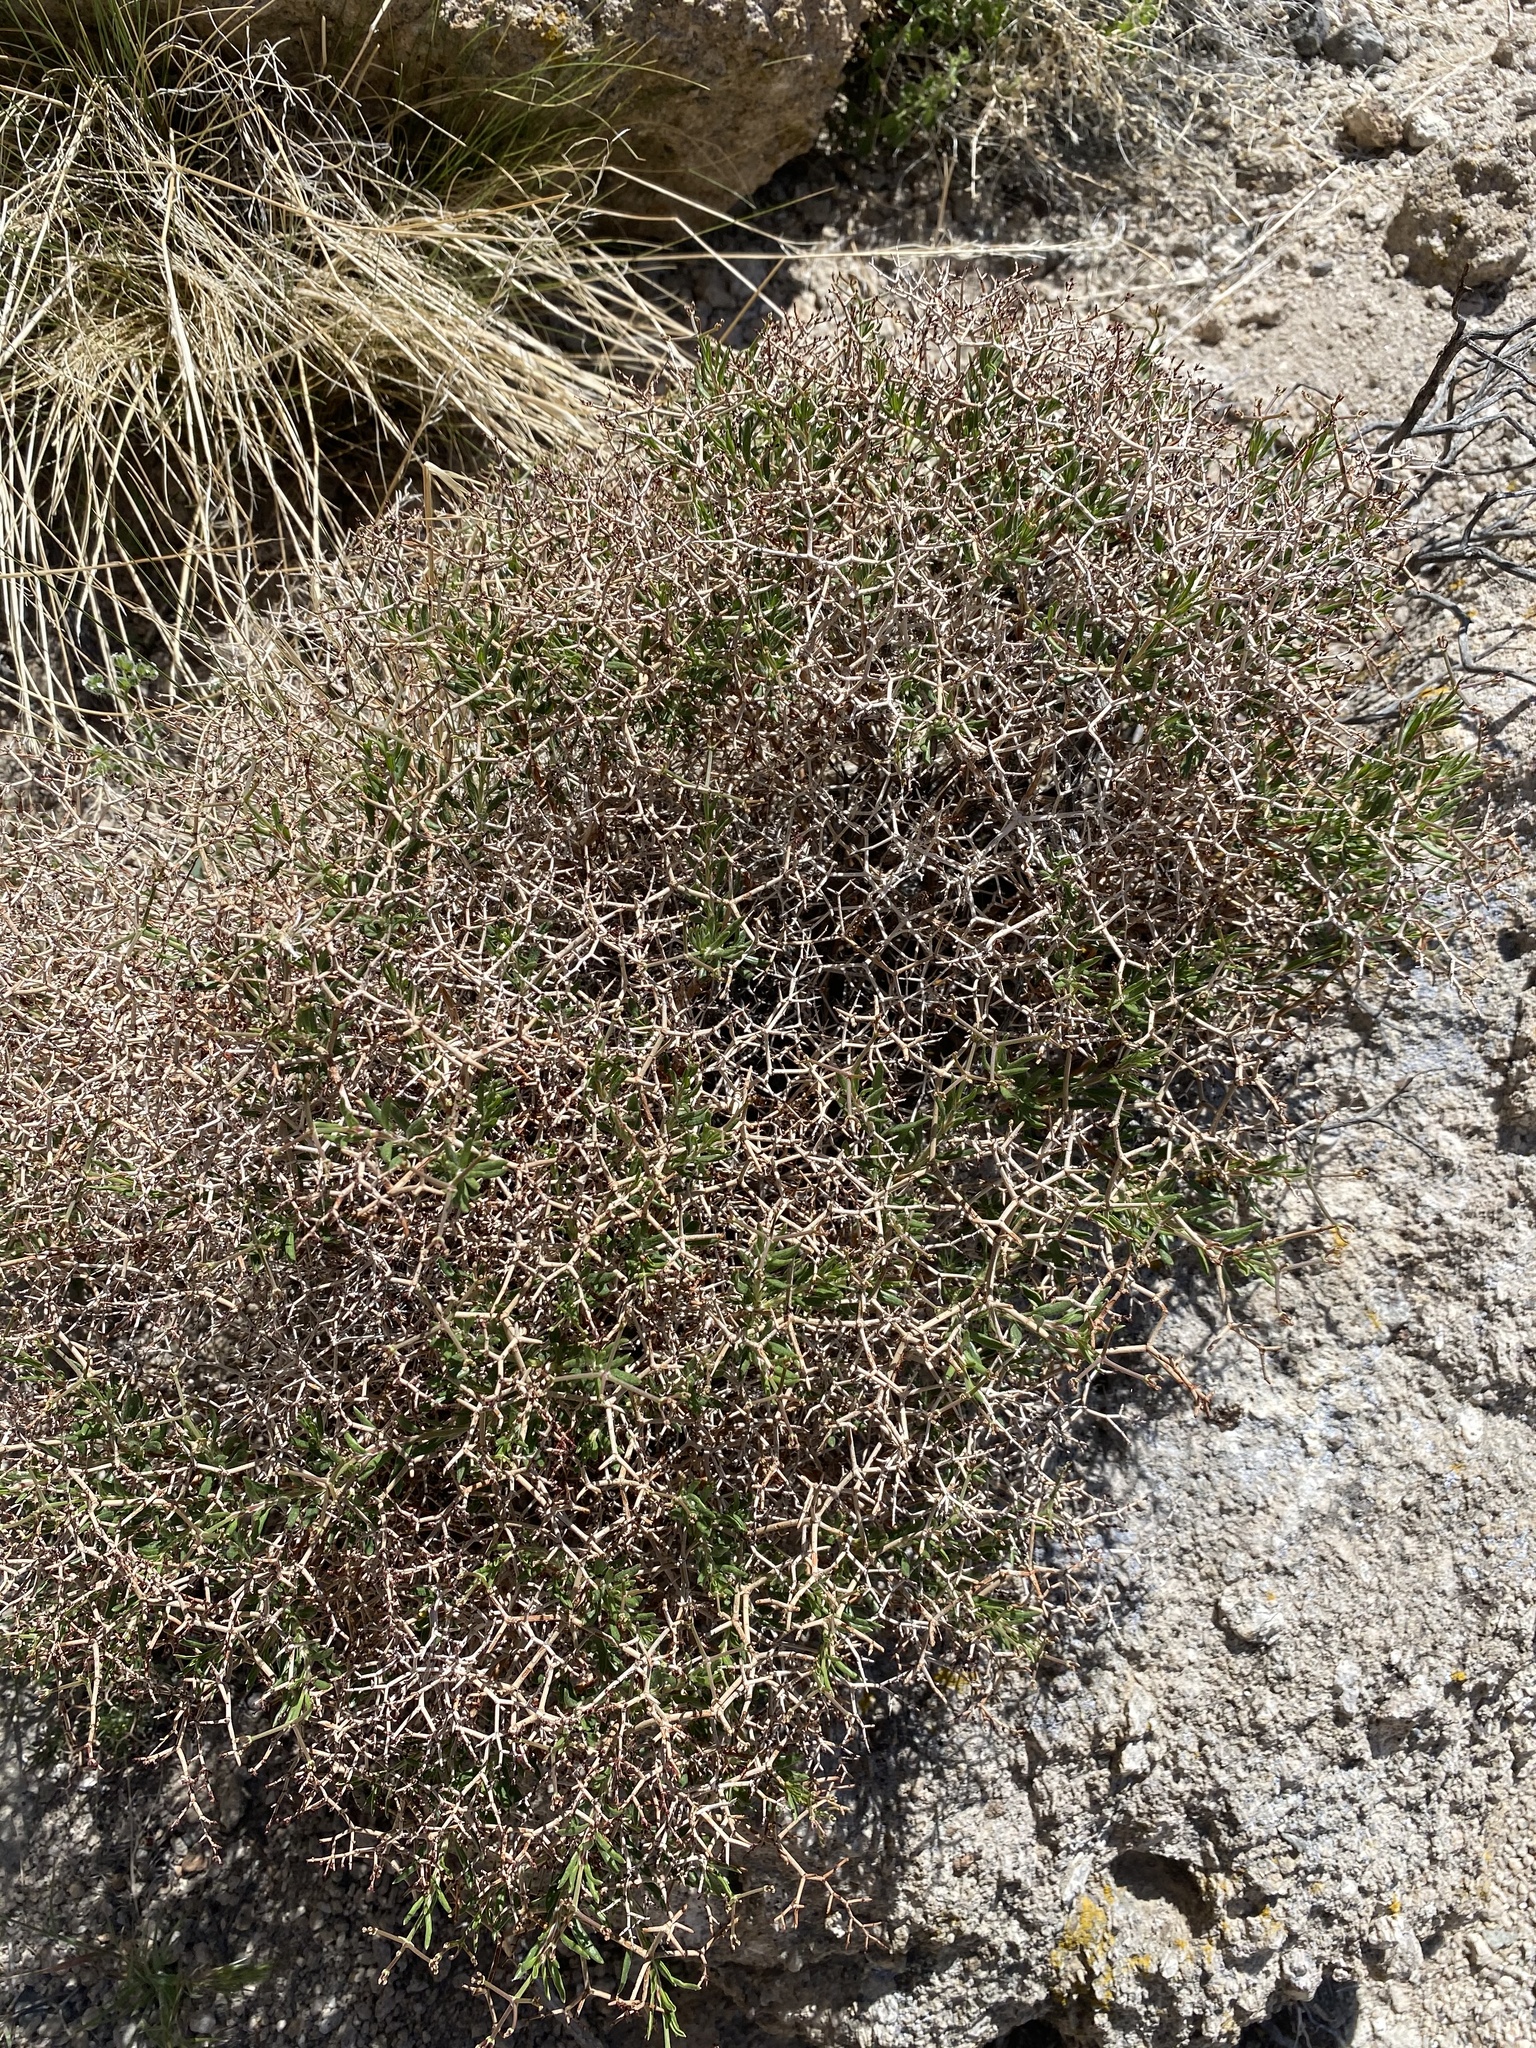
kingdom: Plantae
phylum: Tracheophyta
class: Magnoliopsida
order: Caryophyllales
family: Polygonaceae
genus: Eriogonum
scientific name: Eriogonum heermannii
